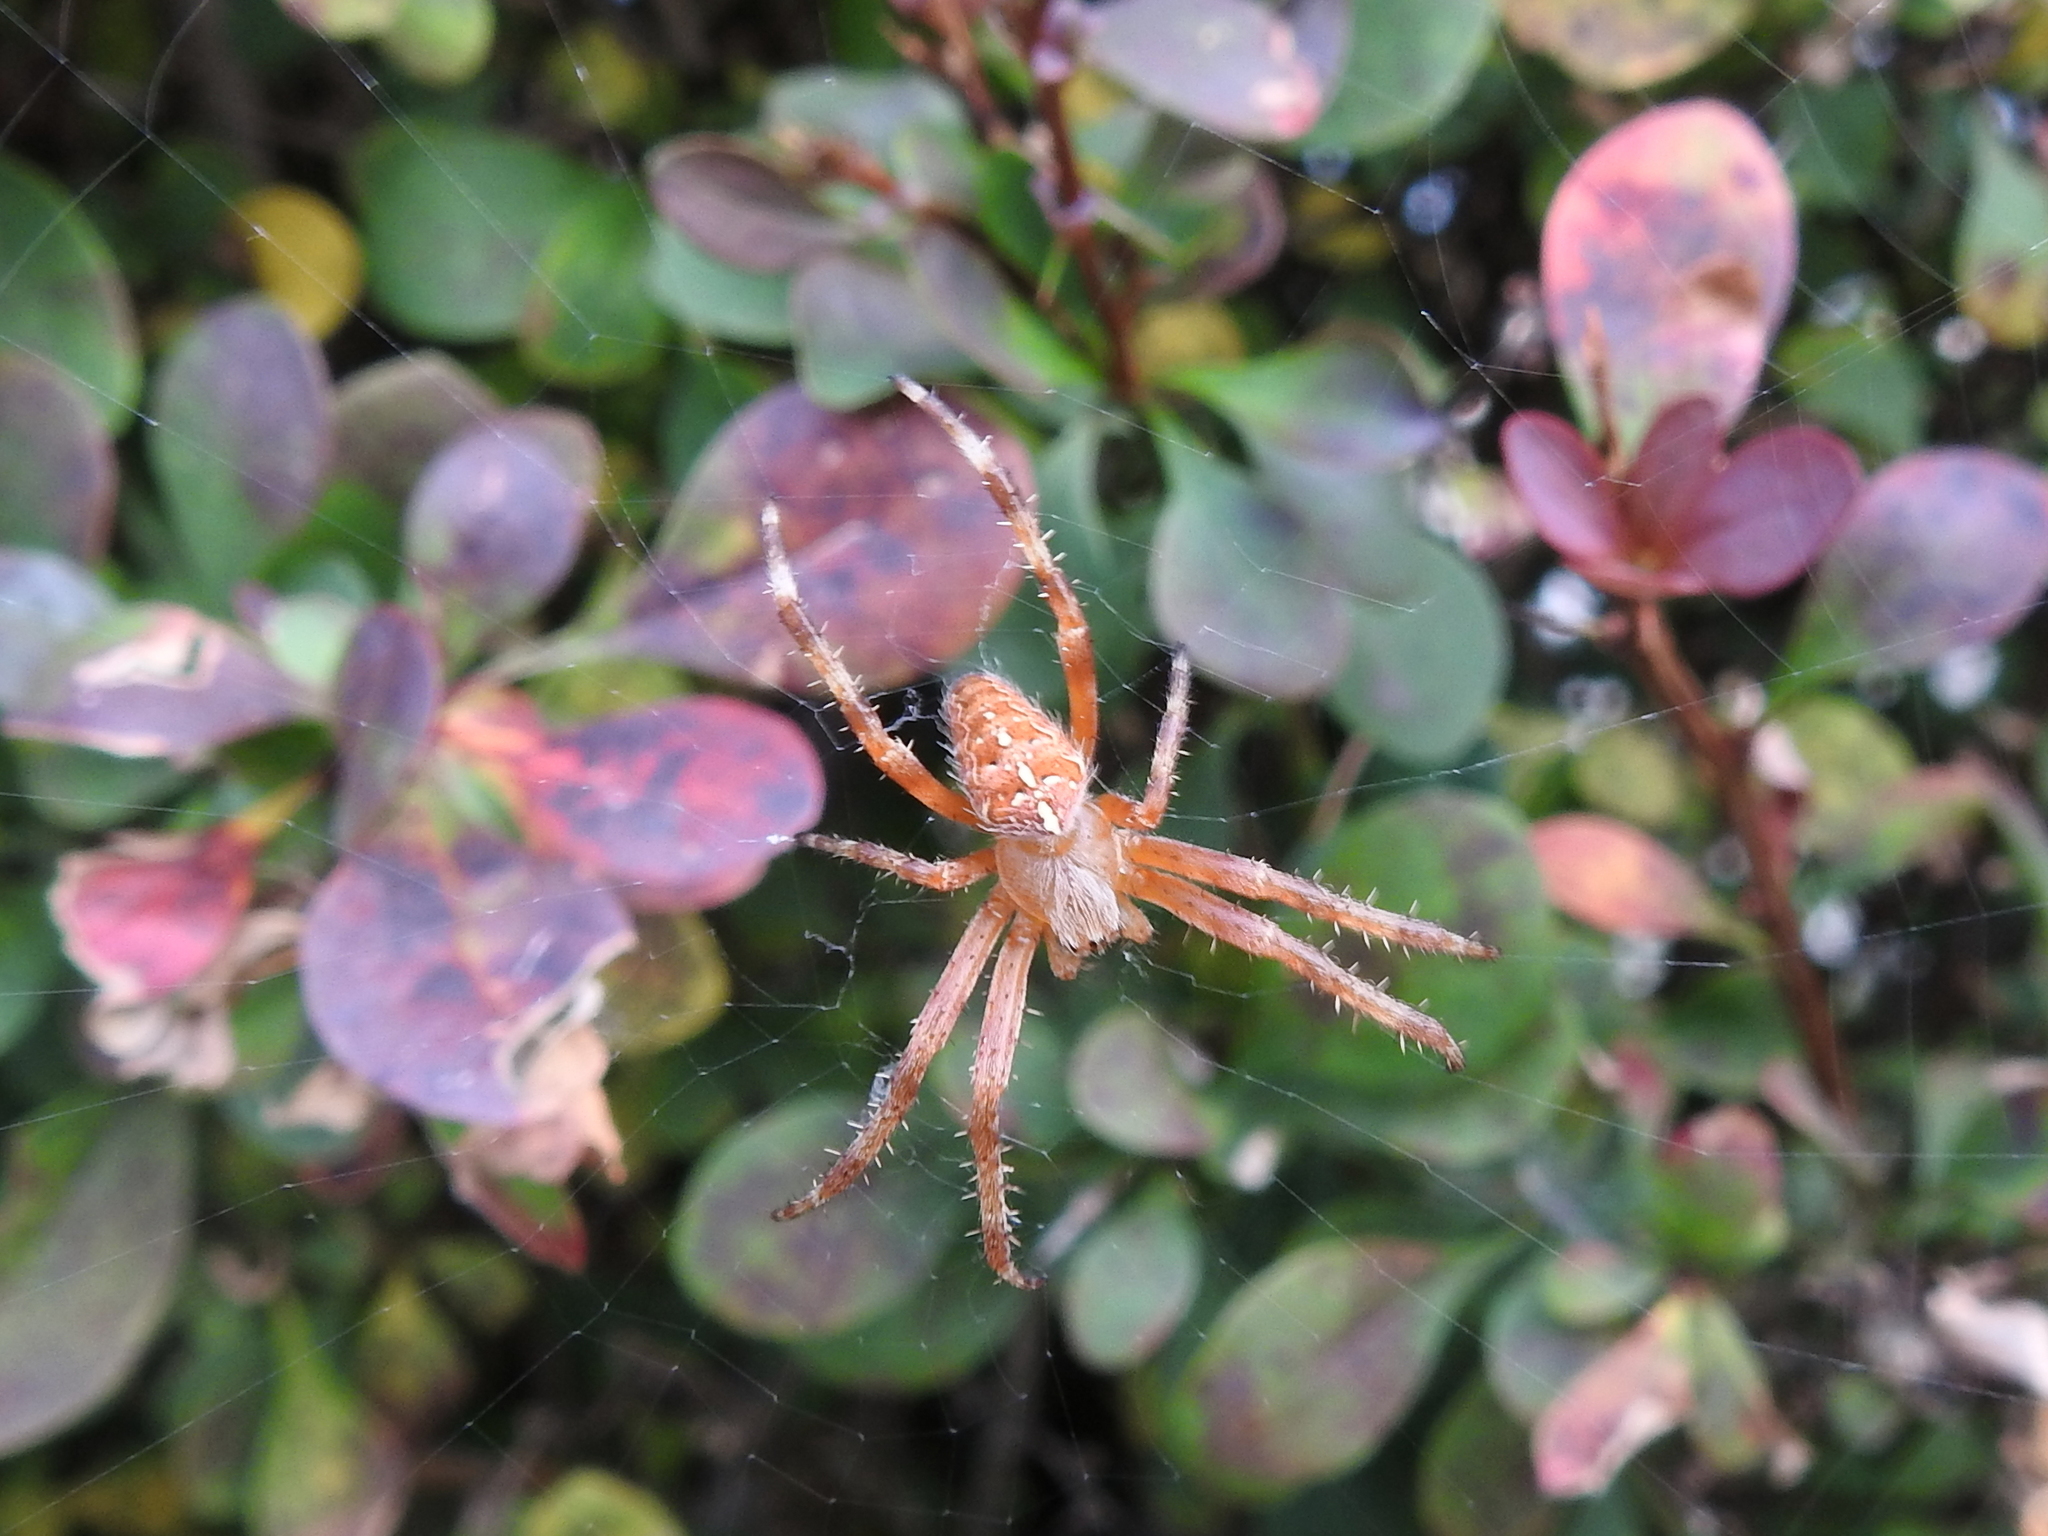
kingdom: Animalia
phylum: Arthropoda
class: Arachnida
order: Araneae
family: Araneidae
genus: Araneus
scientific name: Araneus diadematus
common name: Cross orbweaver
